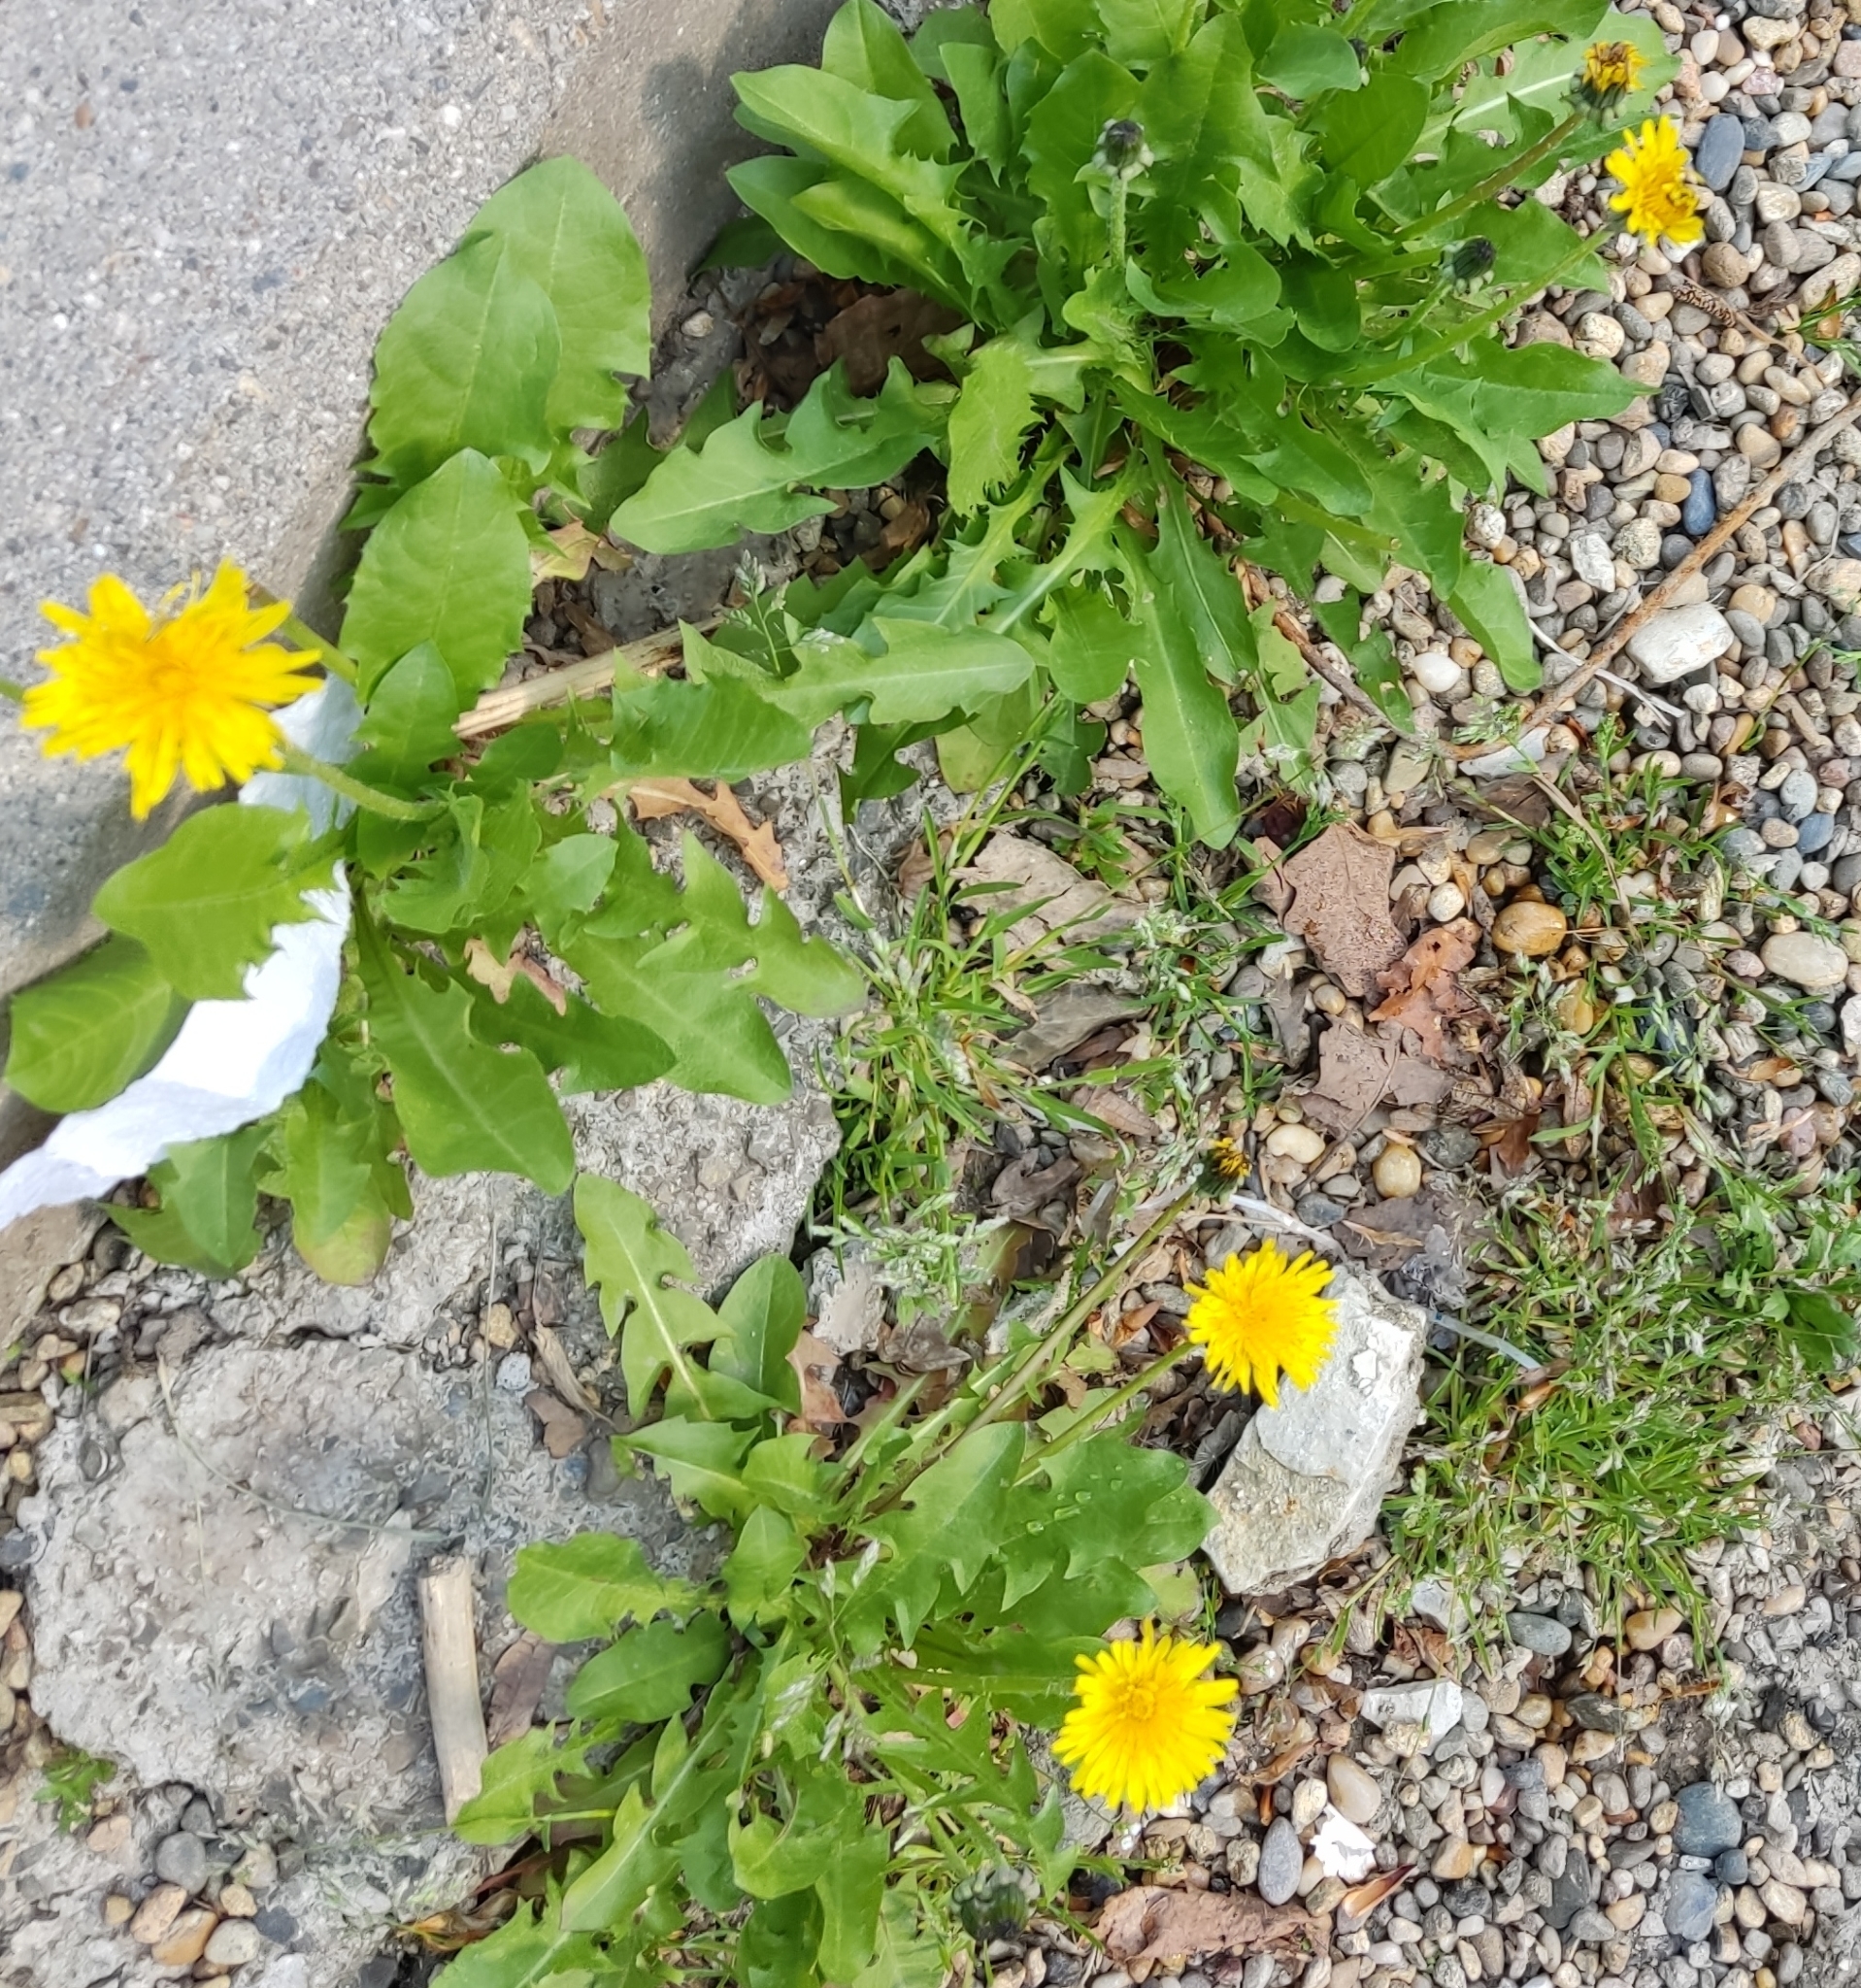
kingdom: Plantae
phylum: Tracheophyta
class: Magnoliopsida
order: Asterales
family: Asteraceae
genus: Taraxacum
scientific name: Taraxacum officinale
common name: Common dandelion
